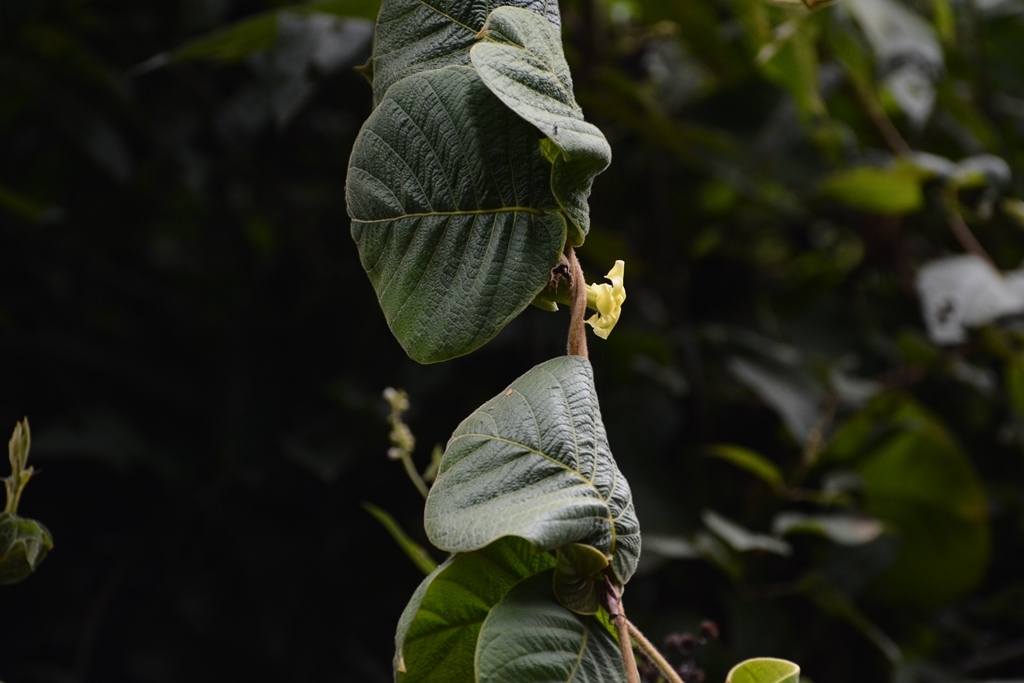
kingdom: Plantae
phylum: Tracheophyta
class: Magnoliopsida
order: Gentianales
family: Apocynaceae
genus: Prestonia
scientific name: Prestonia mexicana
